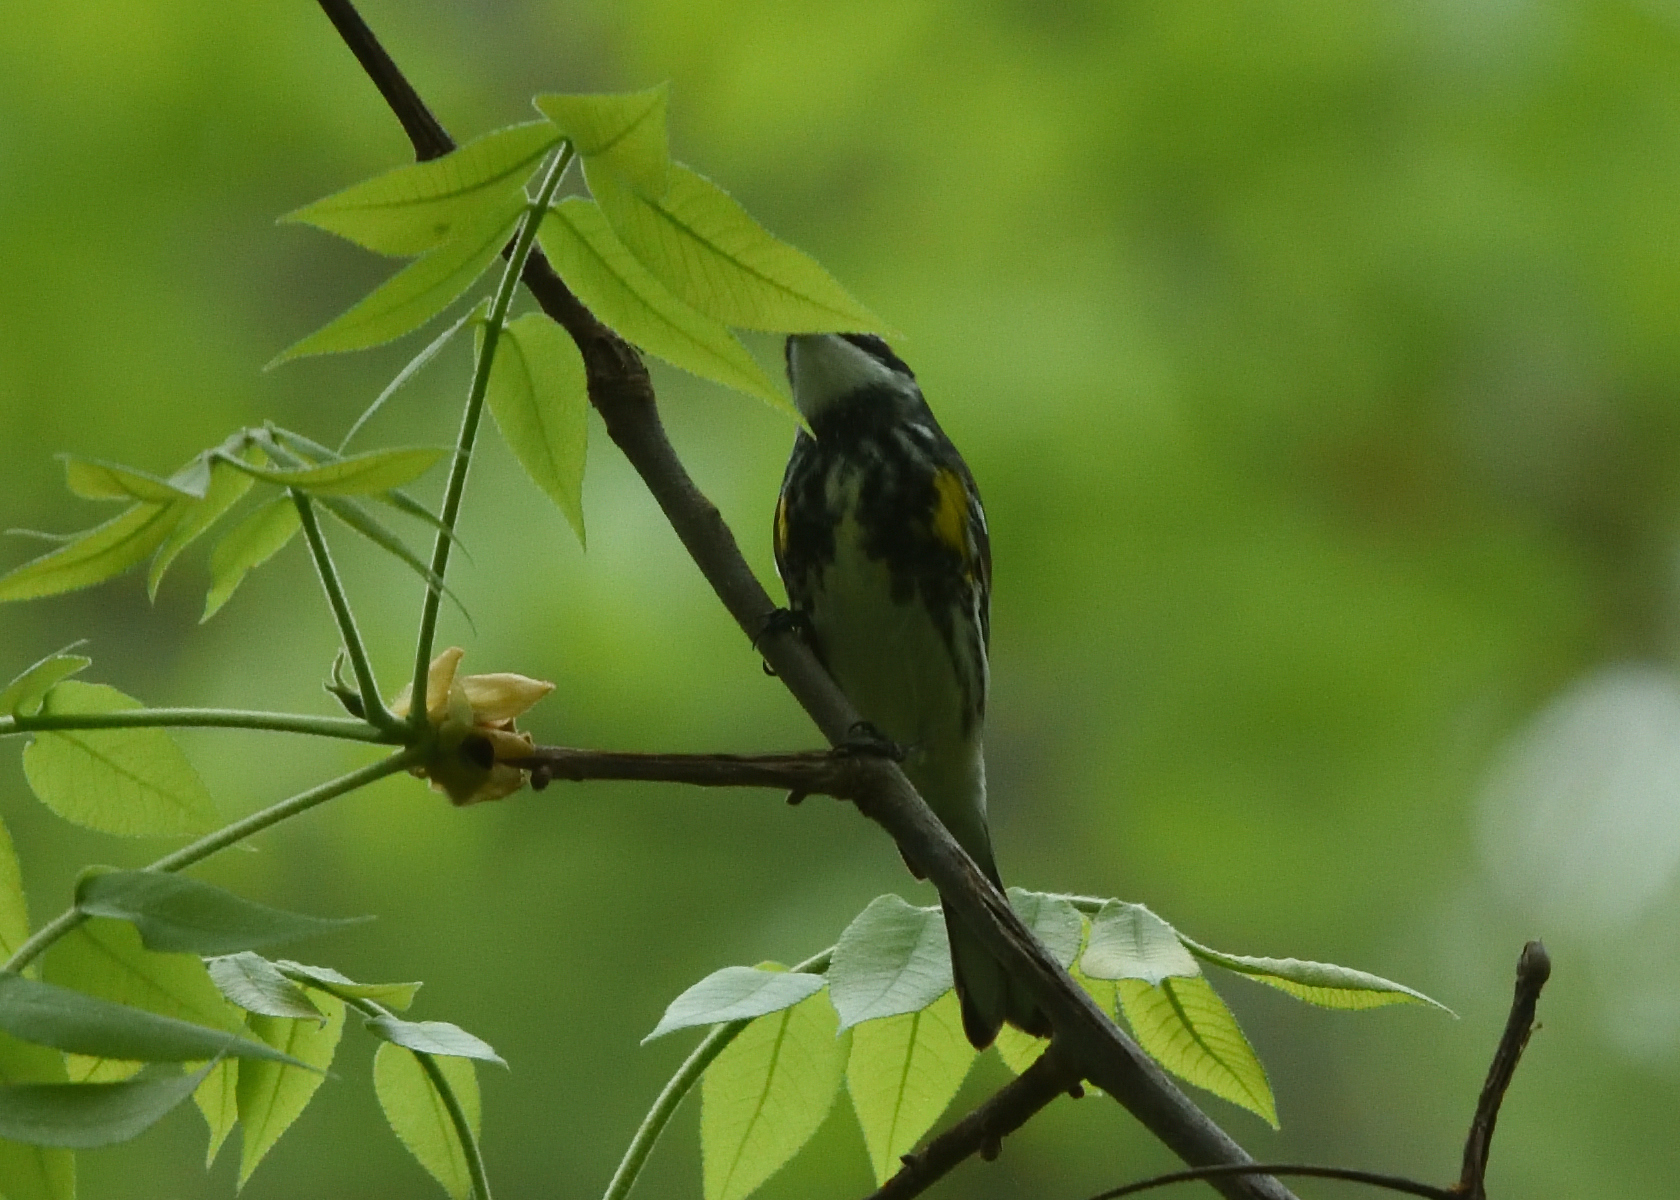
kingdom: Animalia
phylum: Chordata
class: Aves
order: Passeriformes
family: Parulidae
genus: Setophaga
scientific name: Setophaga coronata
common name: Myrtle warbler
